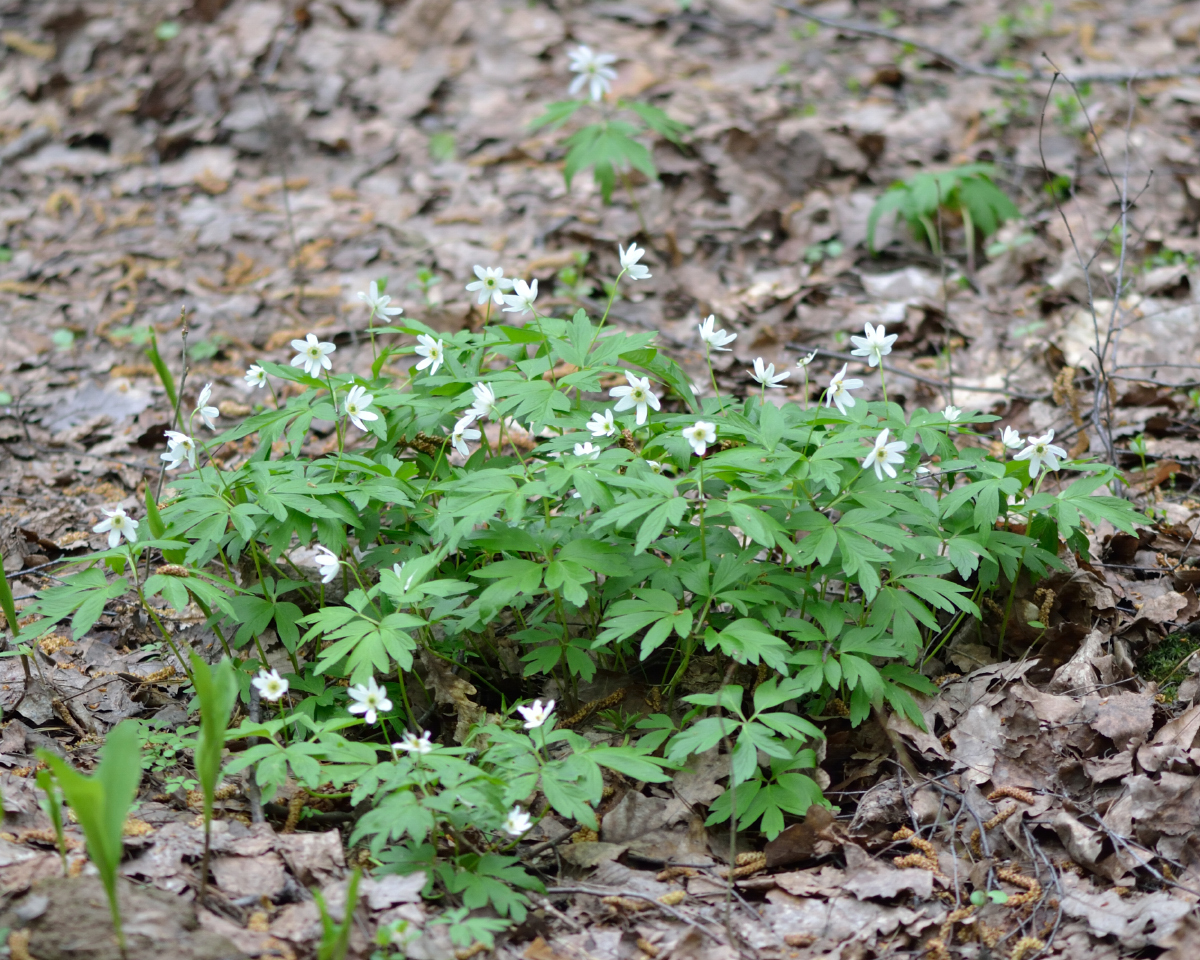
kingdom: Plantae
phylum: Tracheophyta
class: Magnoliopsida
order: Ranunculales
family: Ranunculaceae
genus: Anemone
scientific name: Anemone nemorosa
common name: Wood anemone
